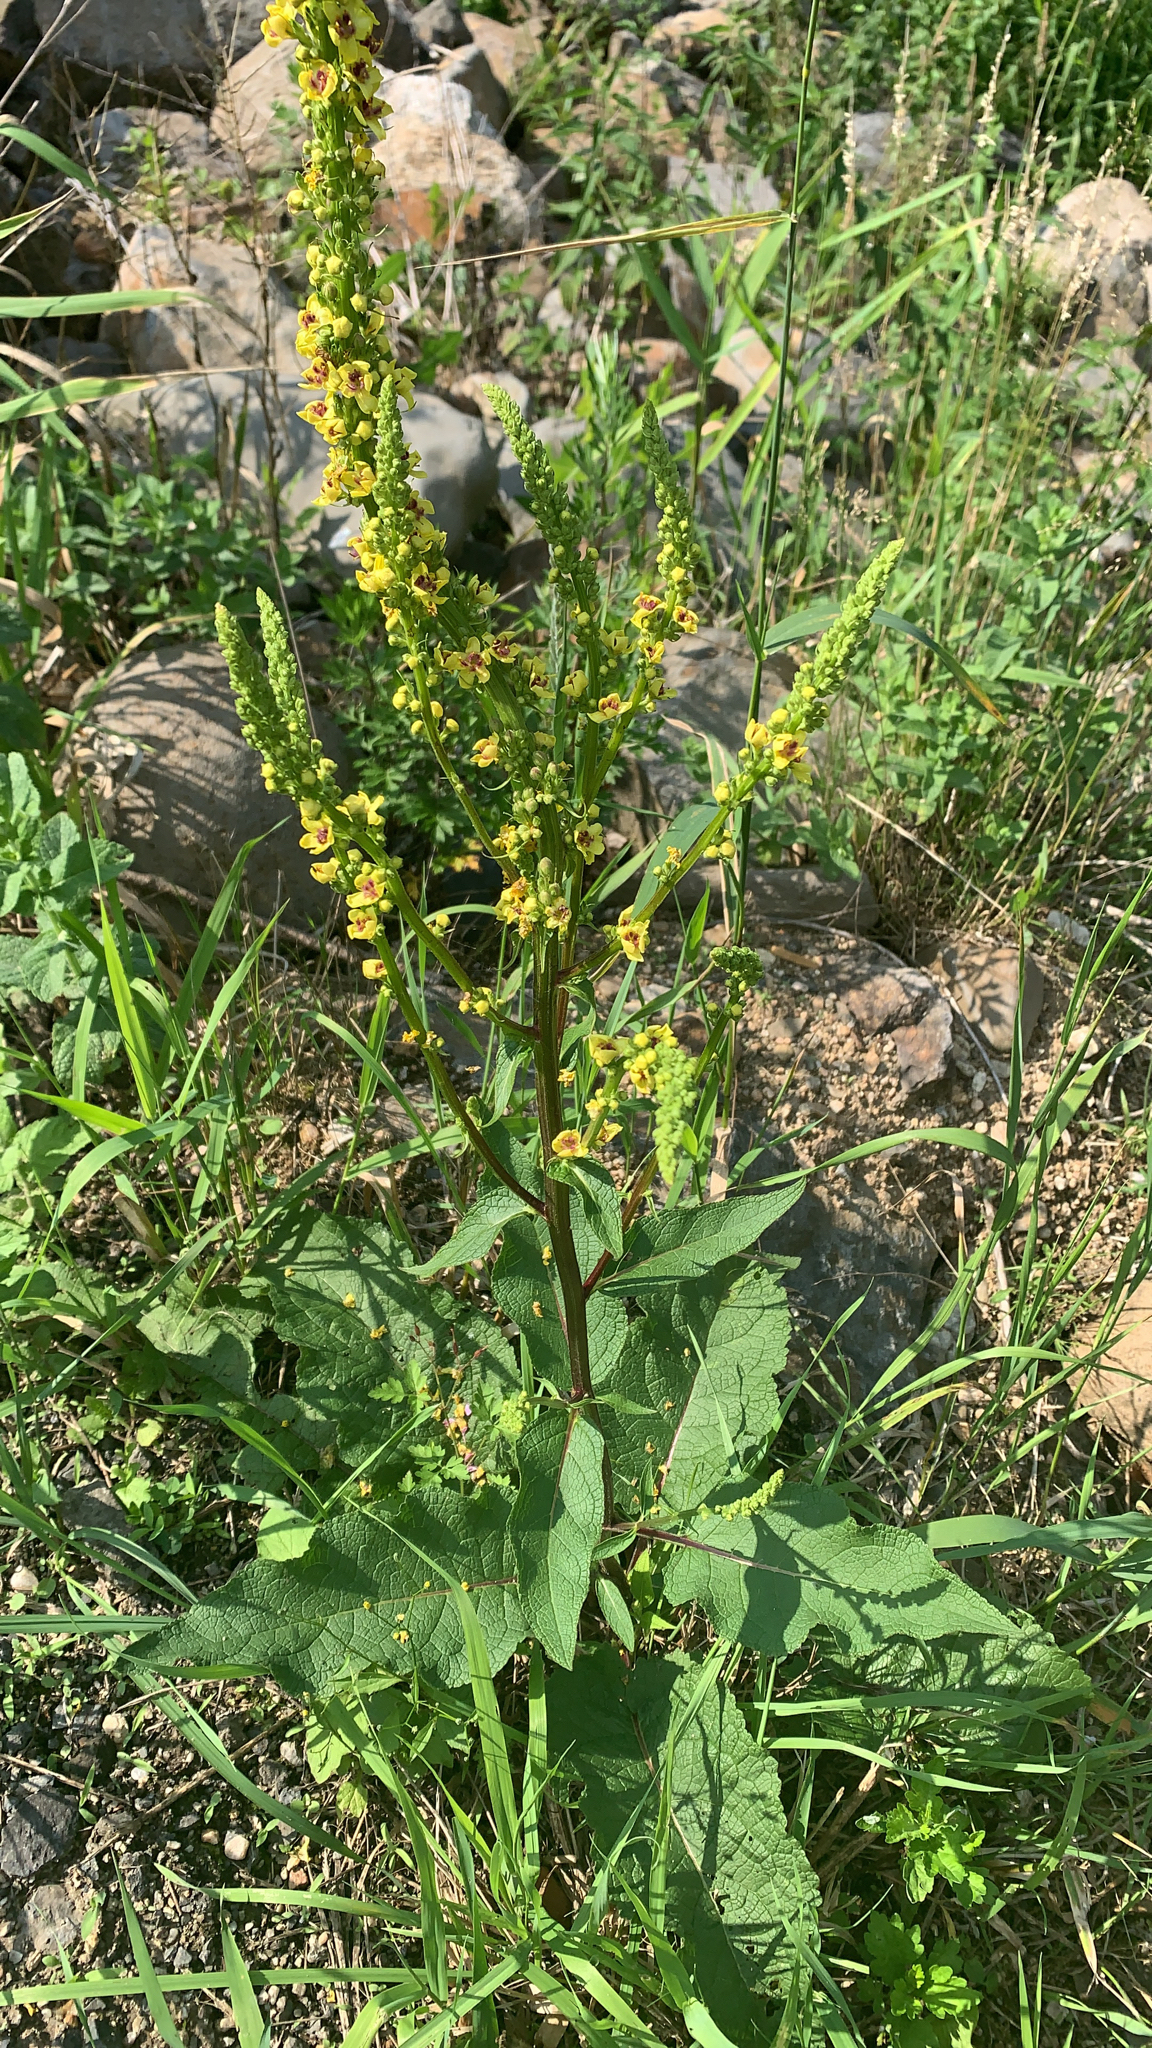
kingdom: Plantae
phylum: Tracheophyta
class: Magnoliopsida
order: Lamiales
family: Scrophulariaceae
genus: Verbascum
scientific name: Verbascum nigrum
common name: Dark mullein
